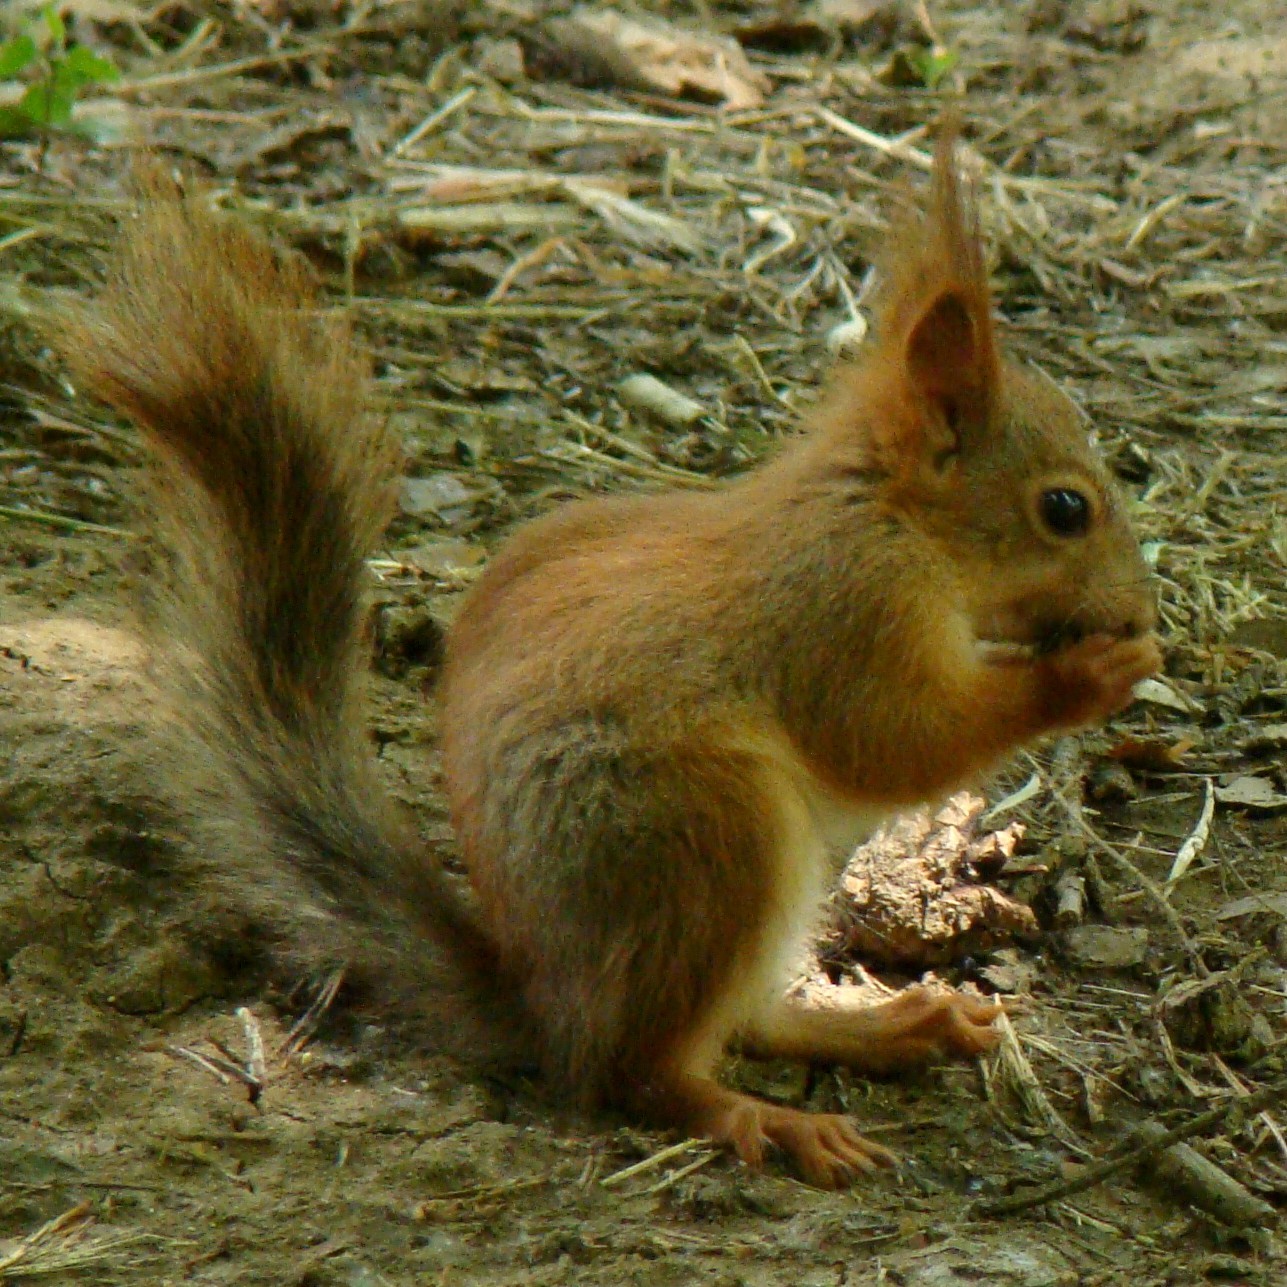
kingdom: Animalia
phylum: Chordata
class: Mammalia
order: Rodentia
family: Sciuridae
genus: Sciurus
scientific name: Sciurus vulgaris
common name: Eurasian red squirrel
